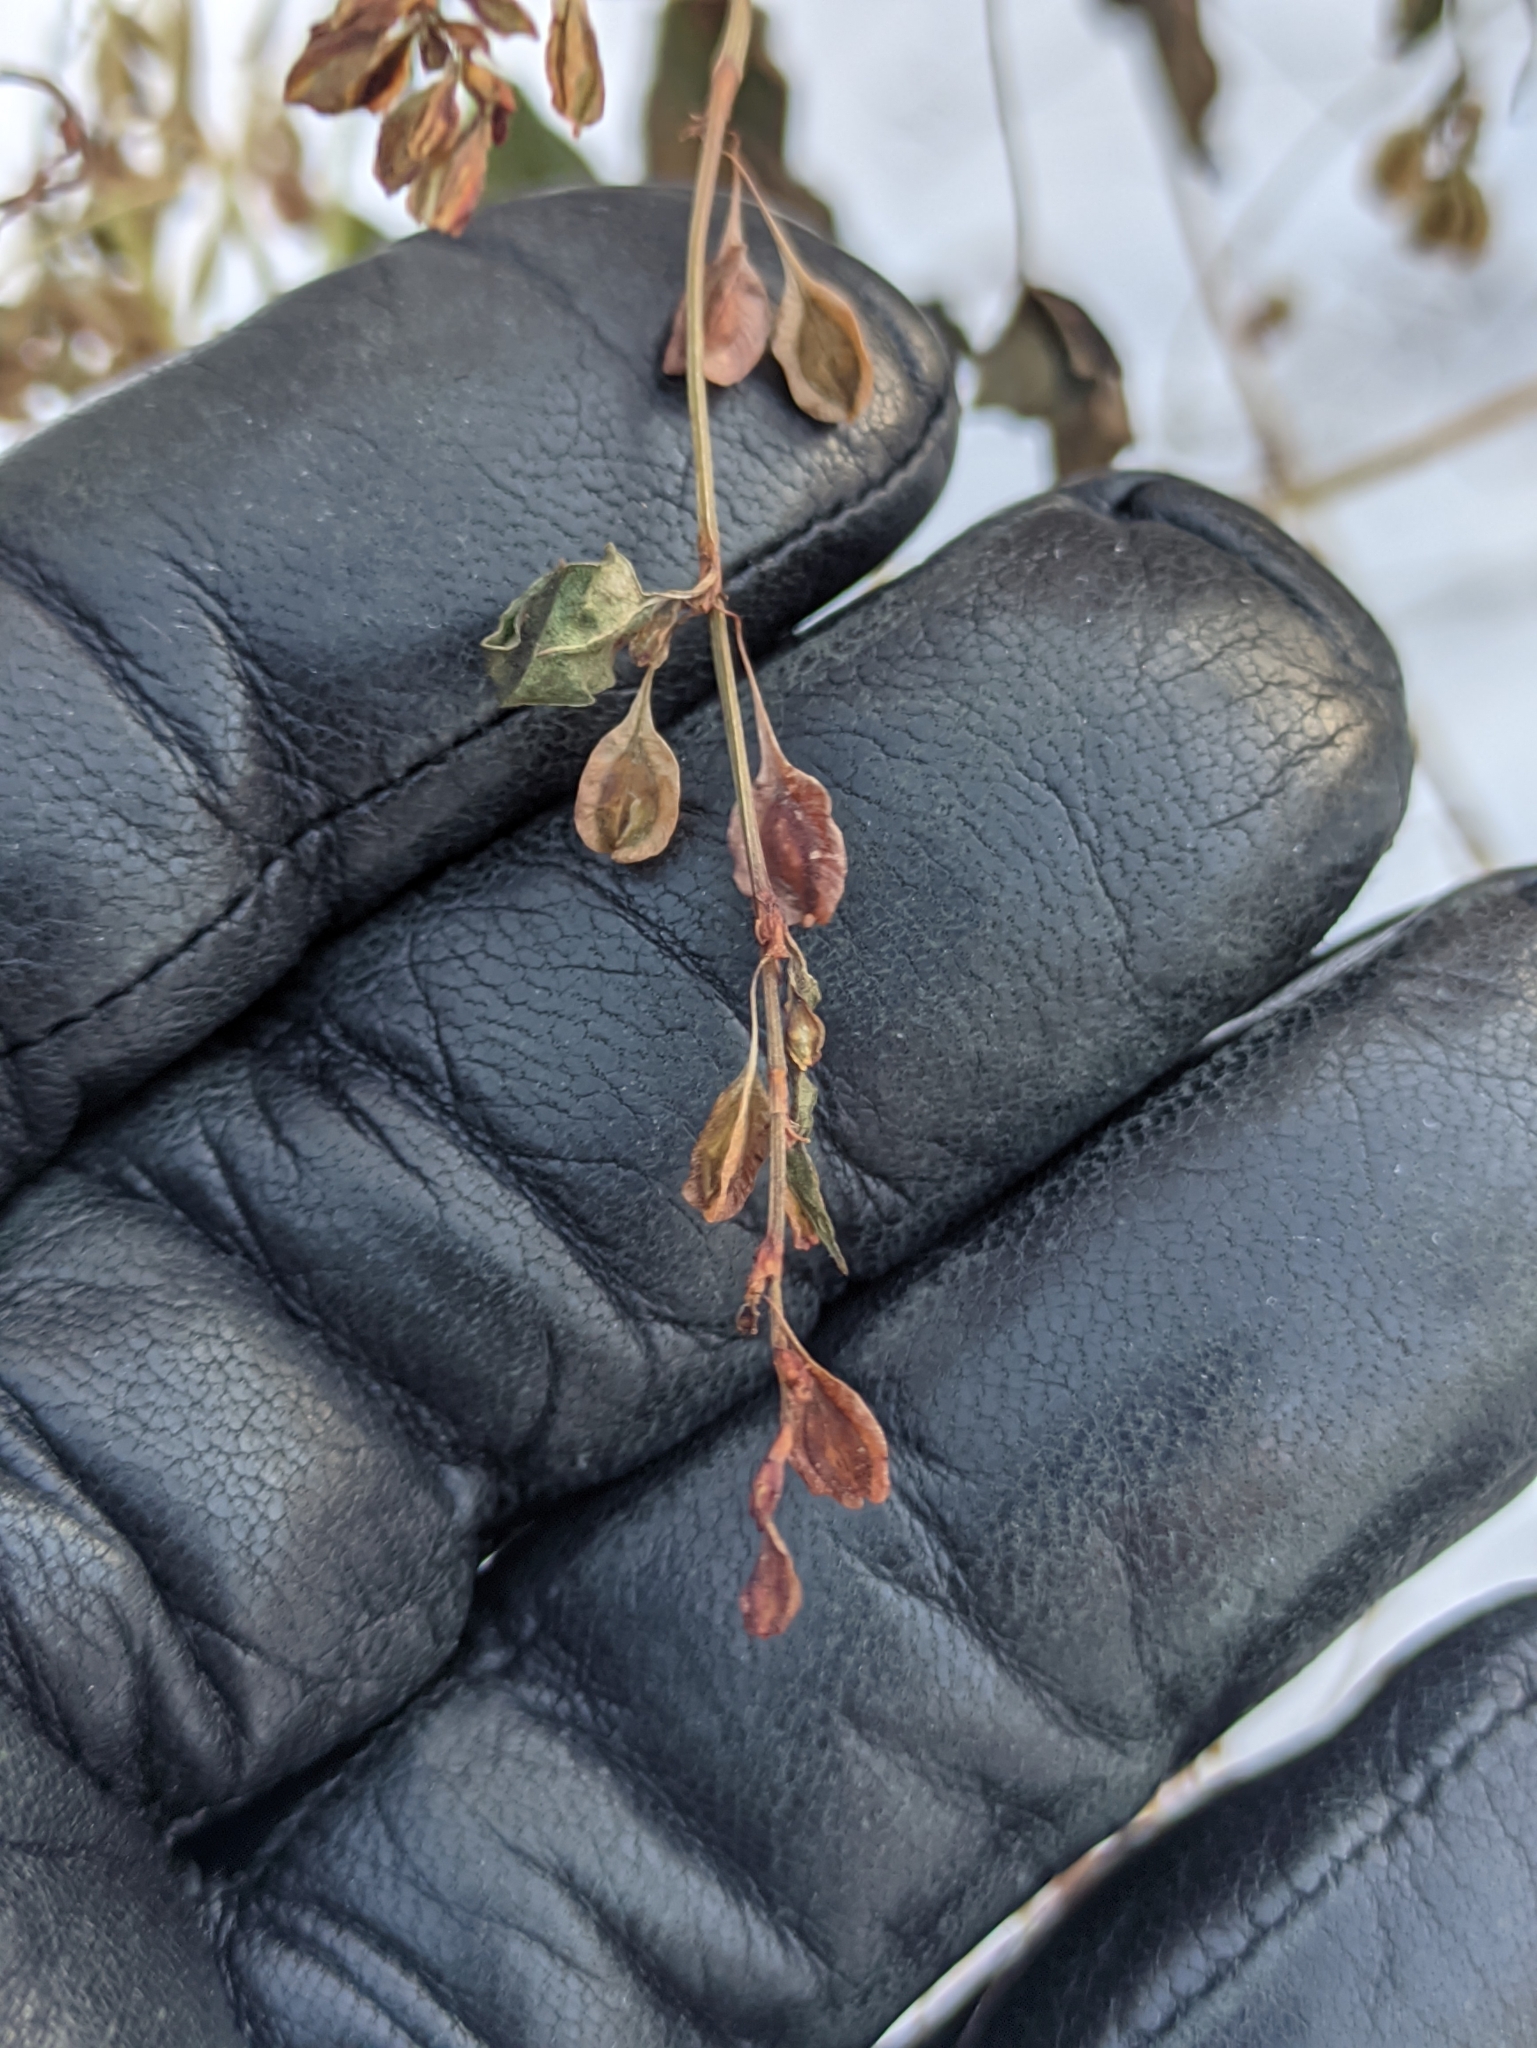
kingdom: Plantae
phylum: Tracheophyta
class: Magnoliopsida
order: Caryophyllales
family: Polygonaceae
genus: Fallopia
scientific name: Fallopia dumetorum
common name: Copse-bindweed
